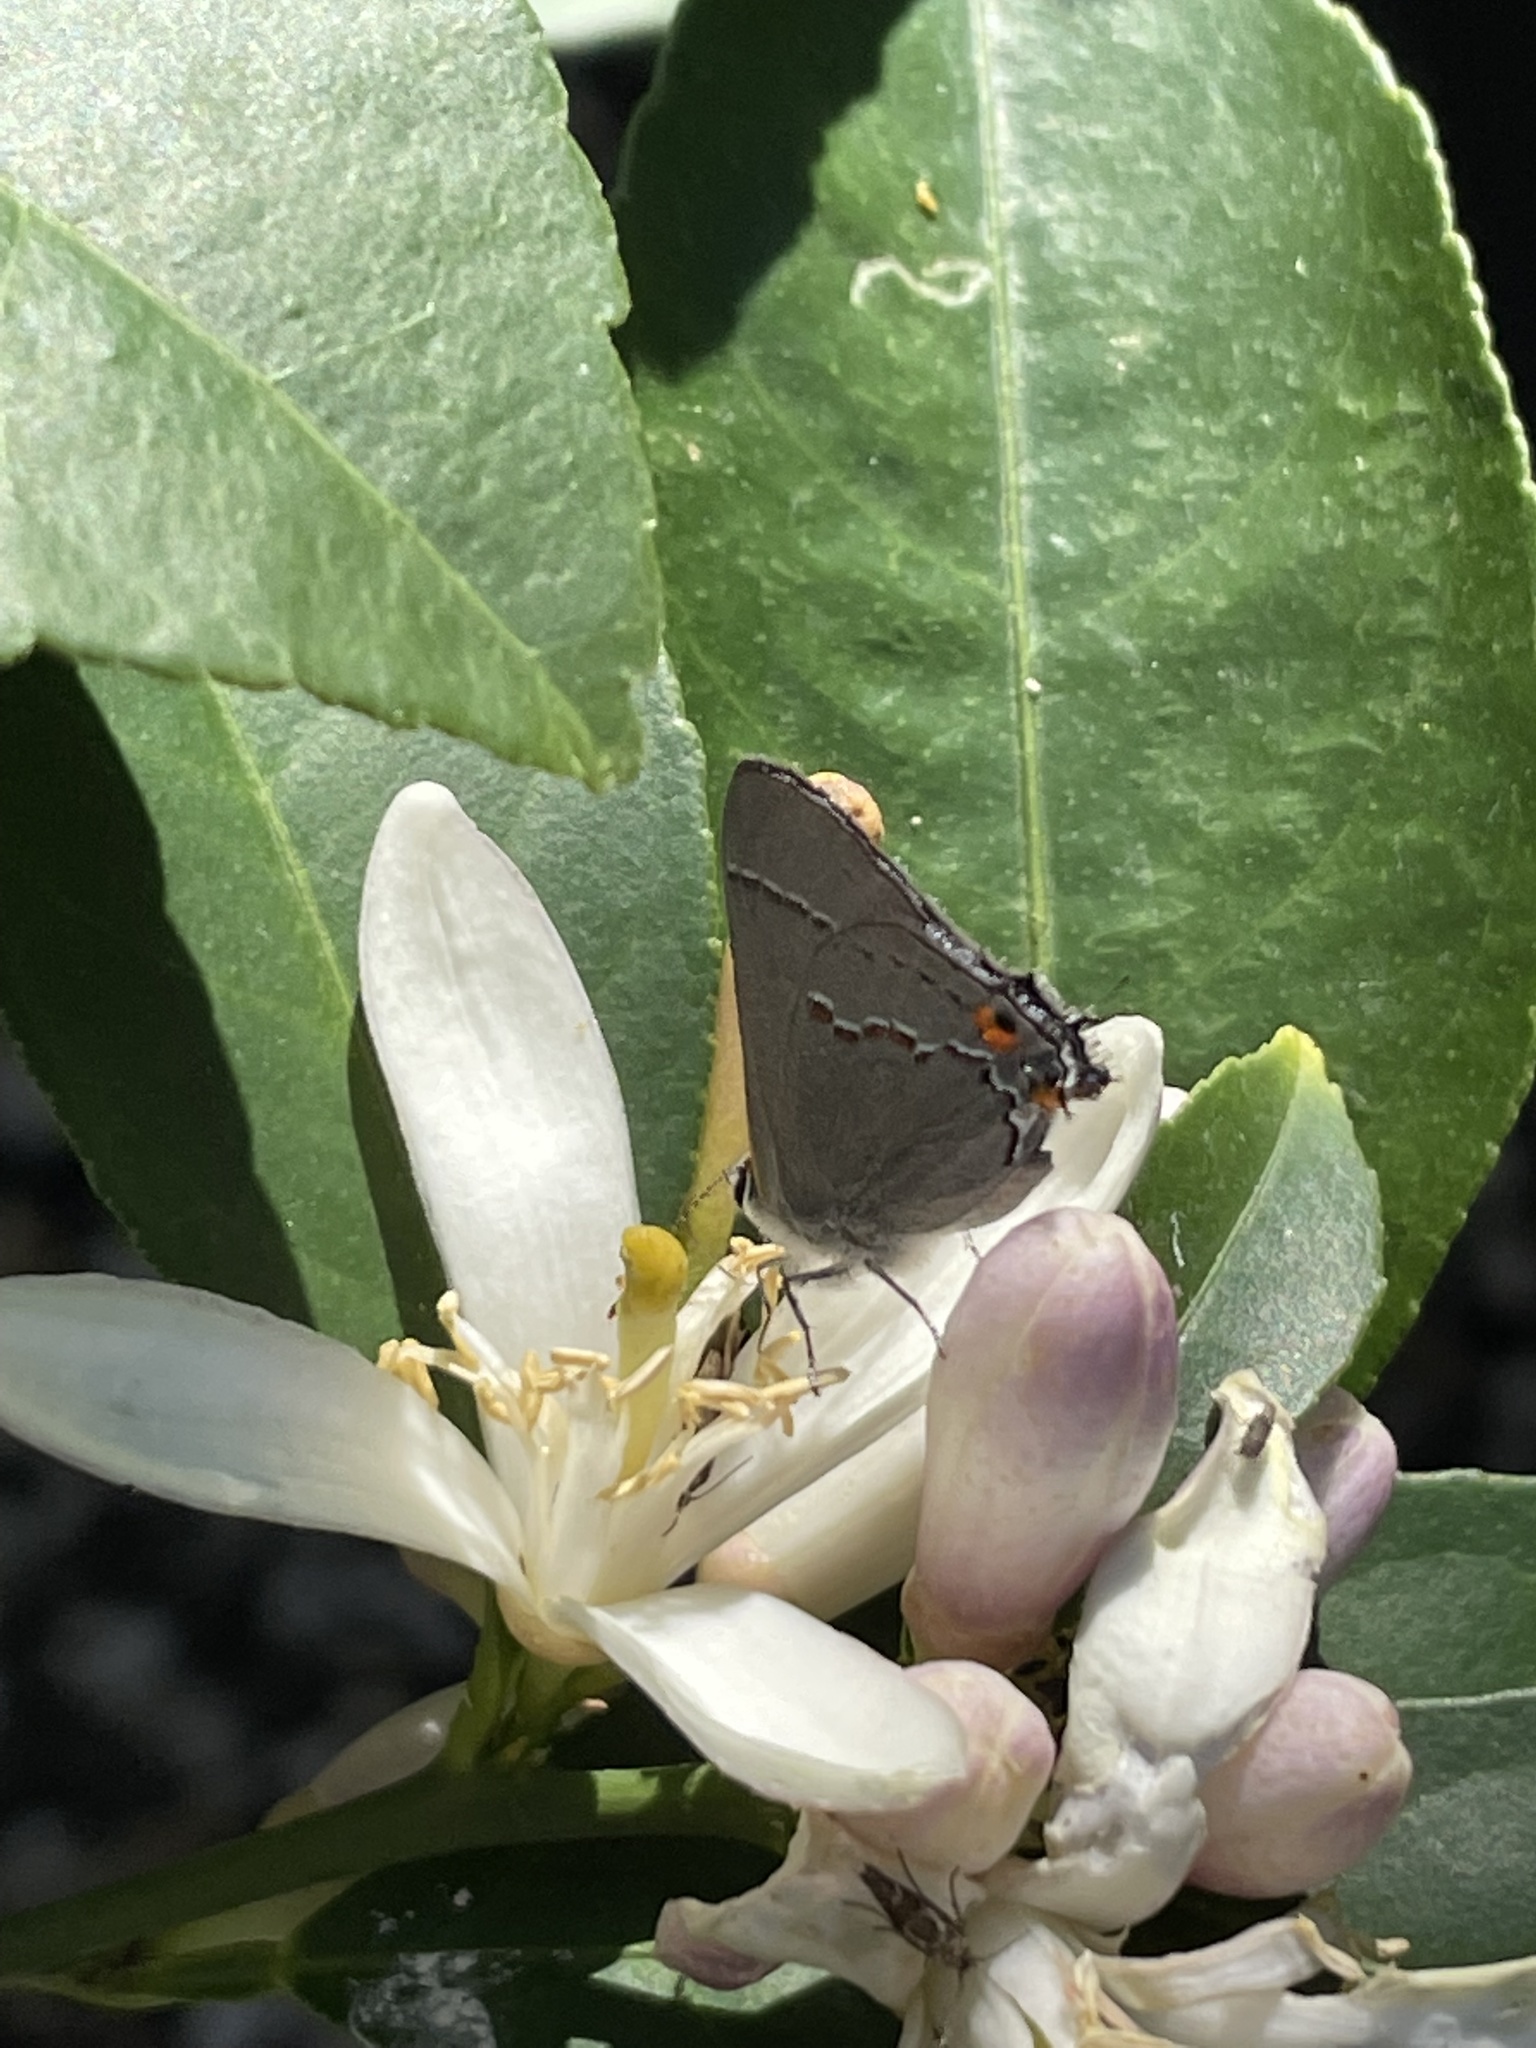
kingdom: Animalia
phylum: Arthropoda
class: Insecta
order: Lepidoptera
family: Lycaenidae
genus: Strymon
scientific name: Strymon melinus
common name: Gray hairstreak
